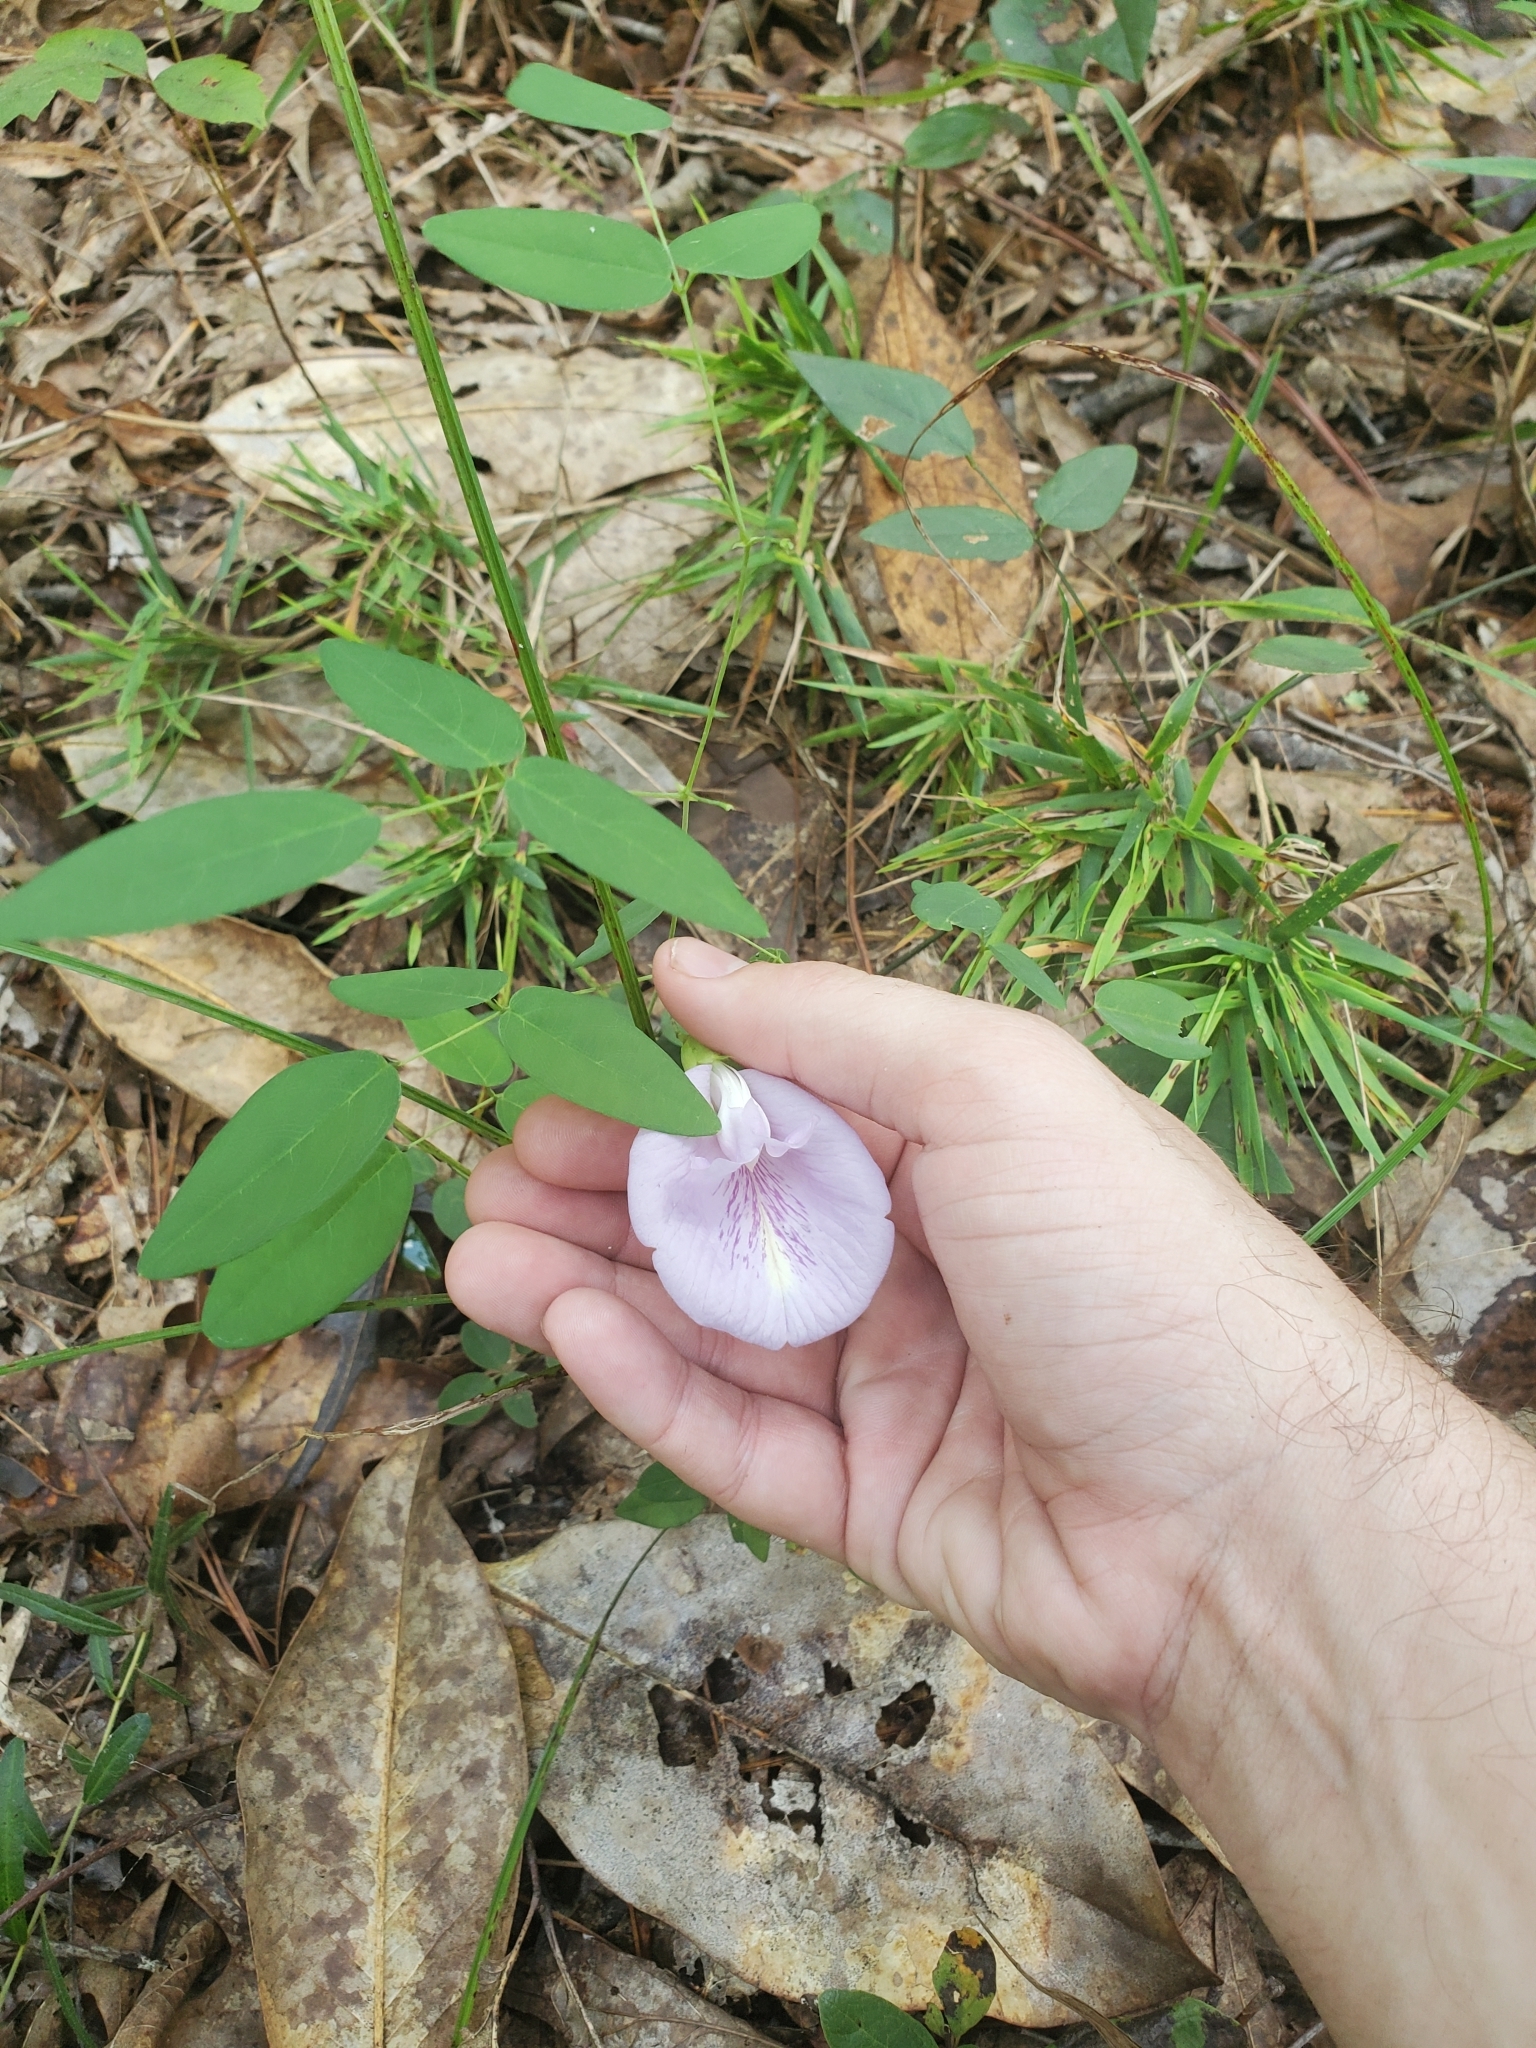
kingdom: Plantae
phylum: Tracheophyta
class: Magnoliopsida
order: Fabales
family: Fabaceae
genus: Clitoria
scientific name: Clitoria mariana
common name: Butterfly-pea
